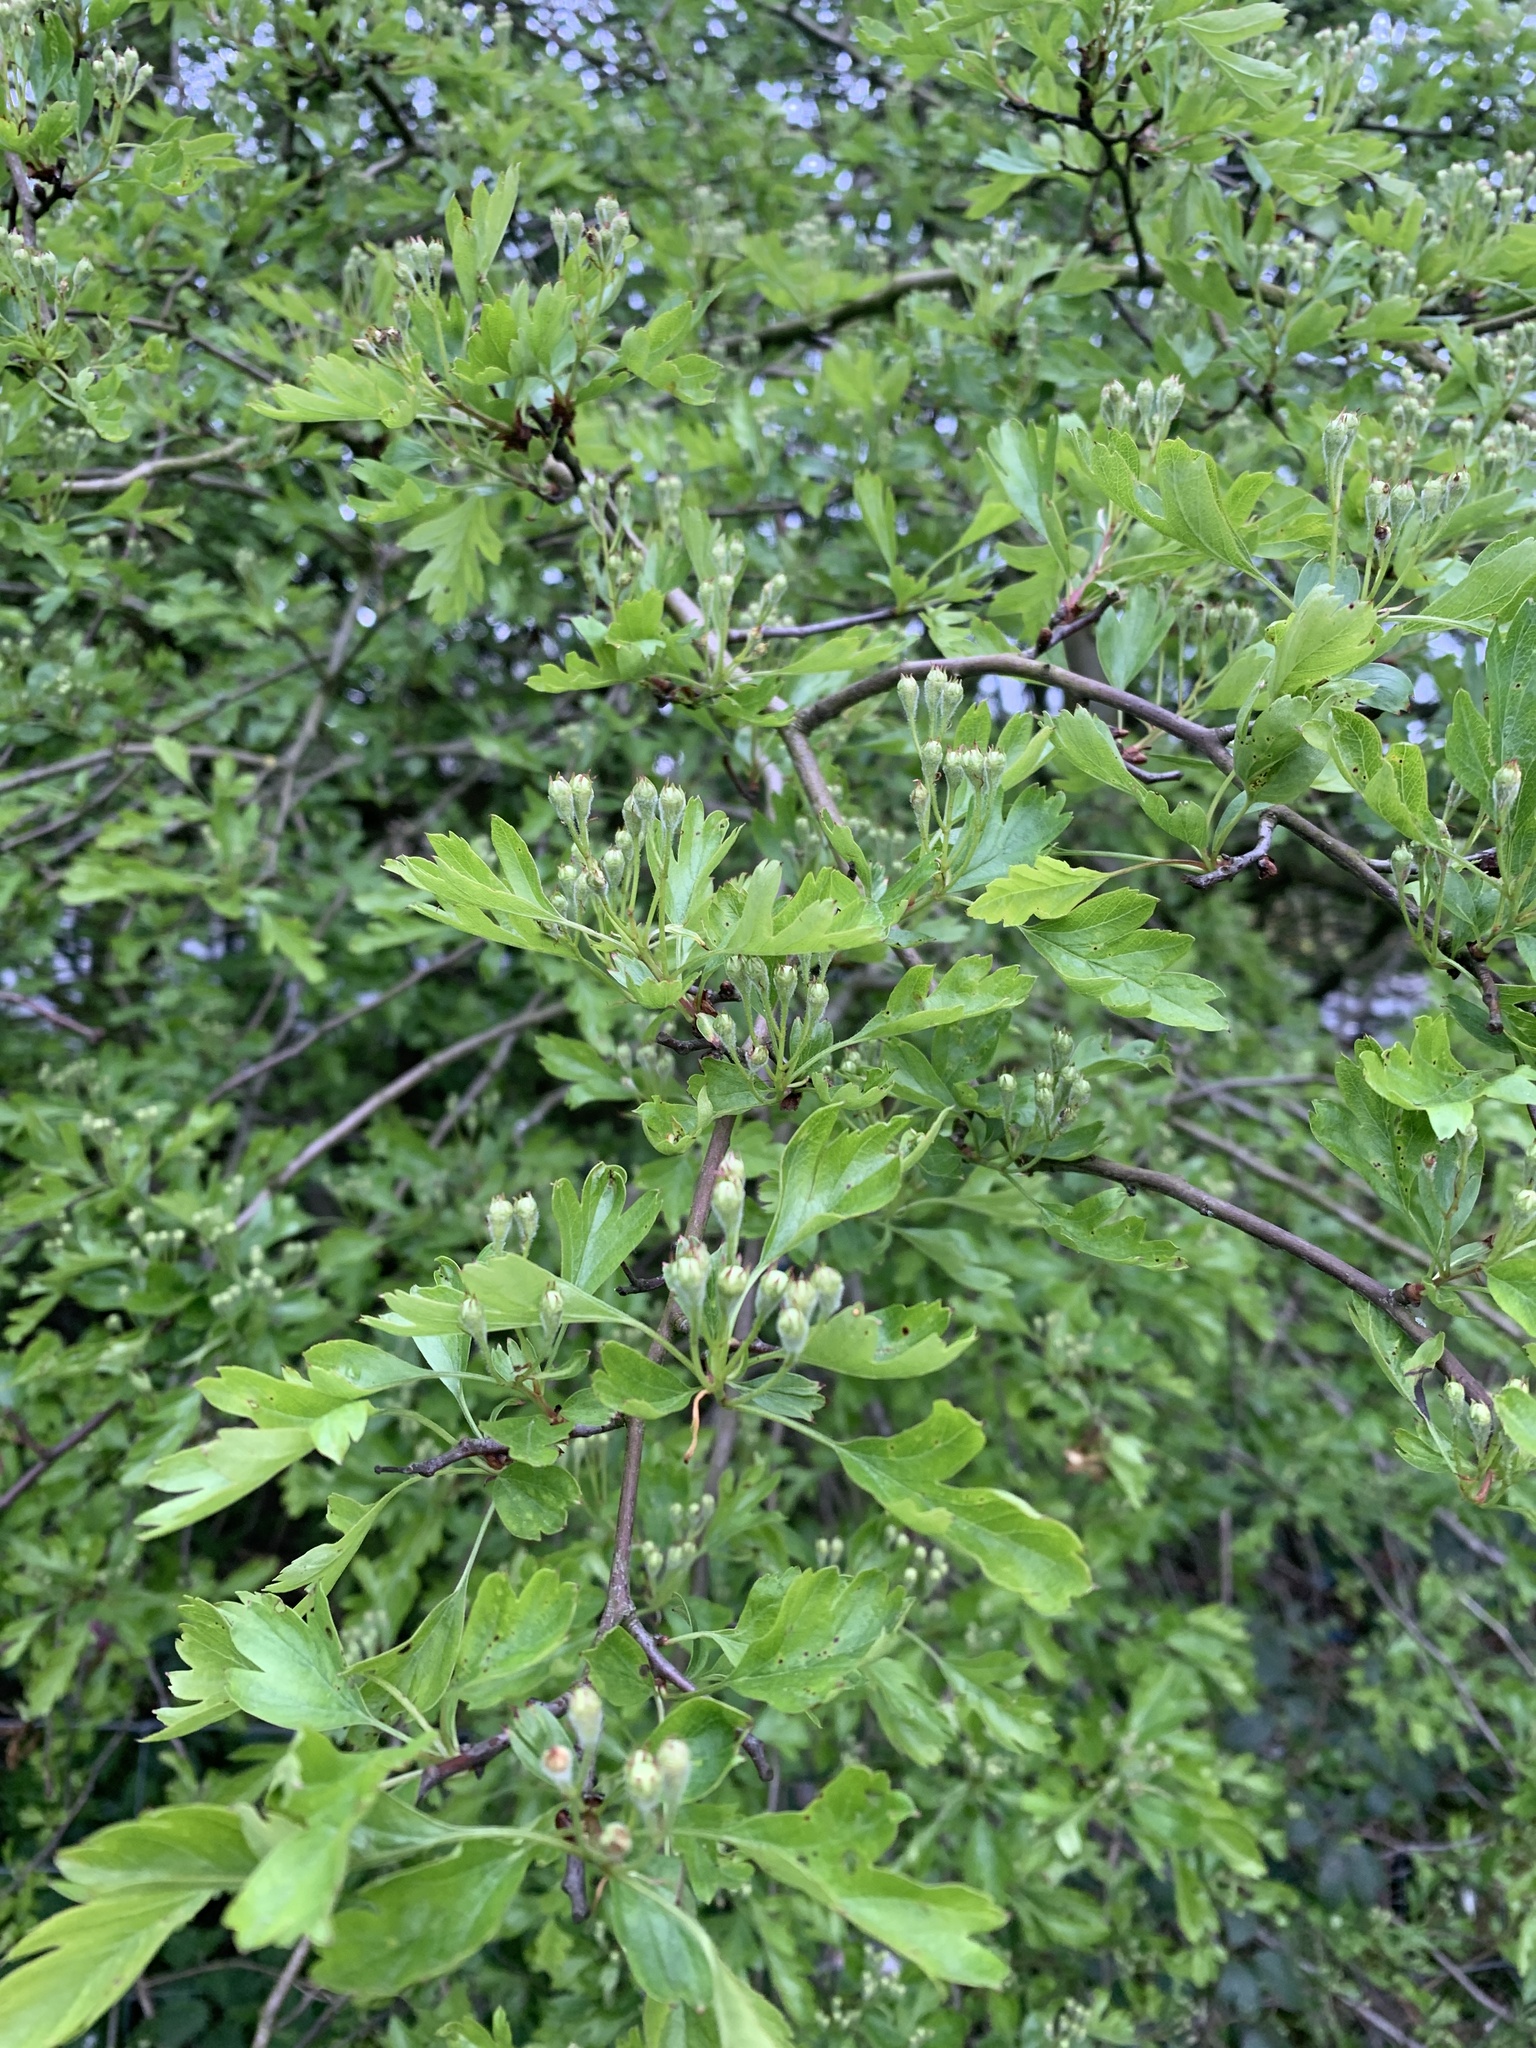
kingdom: Plantae
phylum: Tracheophyta
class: Magnoliopsida
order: Rosales
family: Rosaceae
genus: Crataegus
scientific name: Crataegus monogyna
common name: Hawthorn
